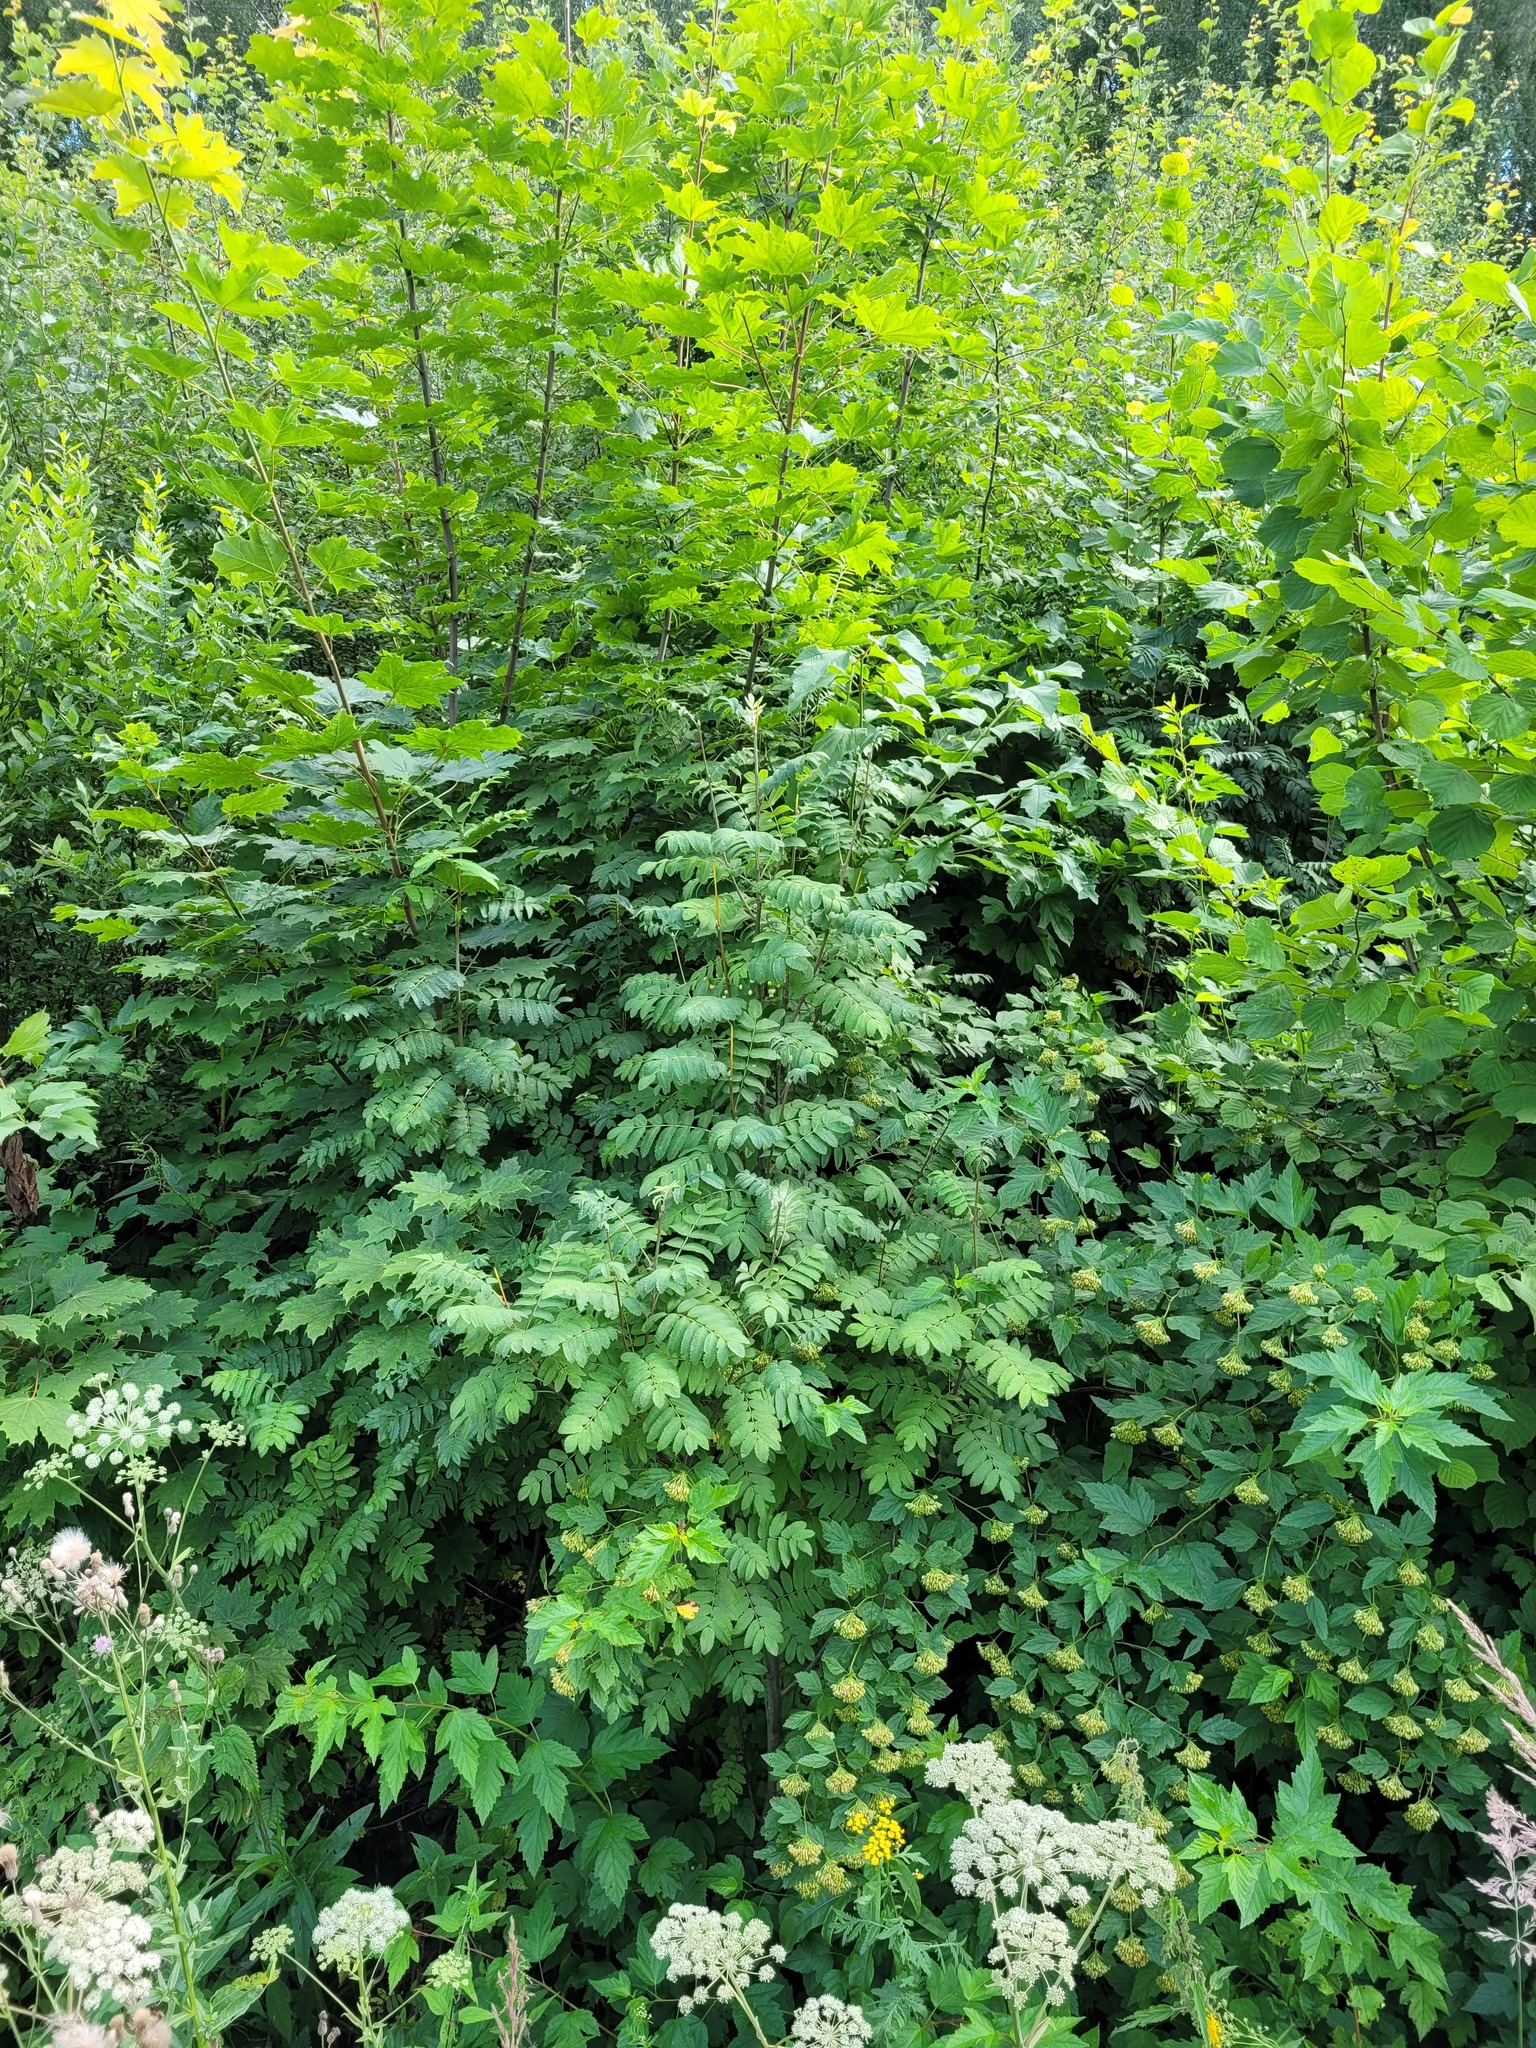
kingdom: Plantae
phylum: Tracheophyta
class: Magnoliopsida
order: Rosales
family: Rosaceae
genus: Sorbus
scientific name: Sorbus aucuparia
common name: Rowan
